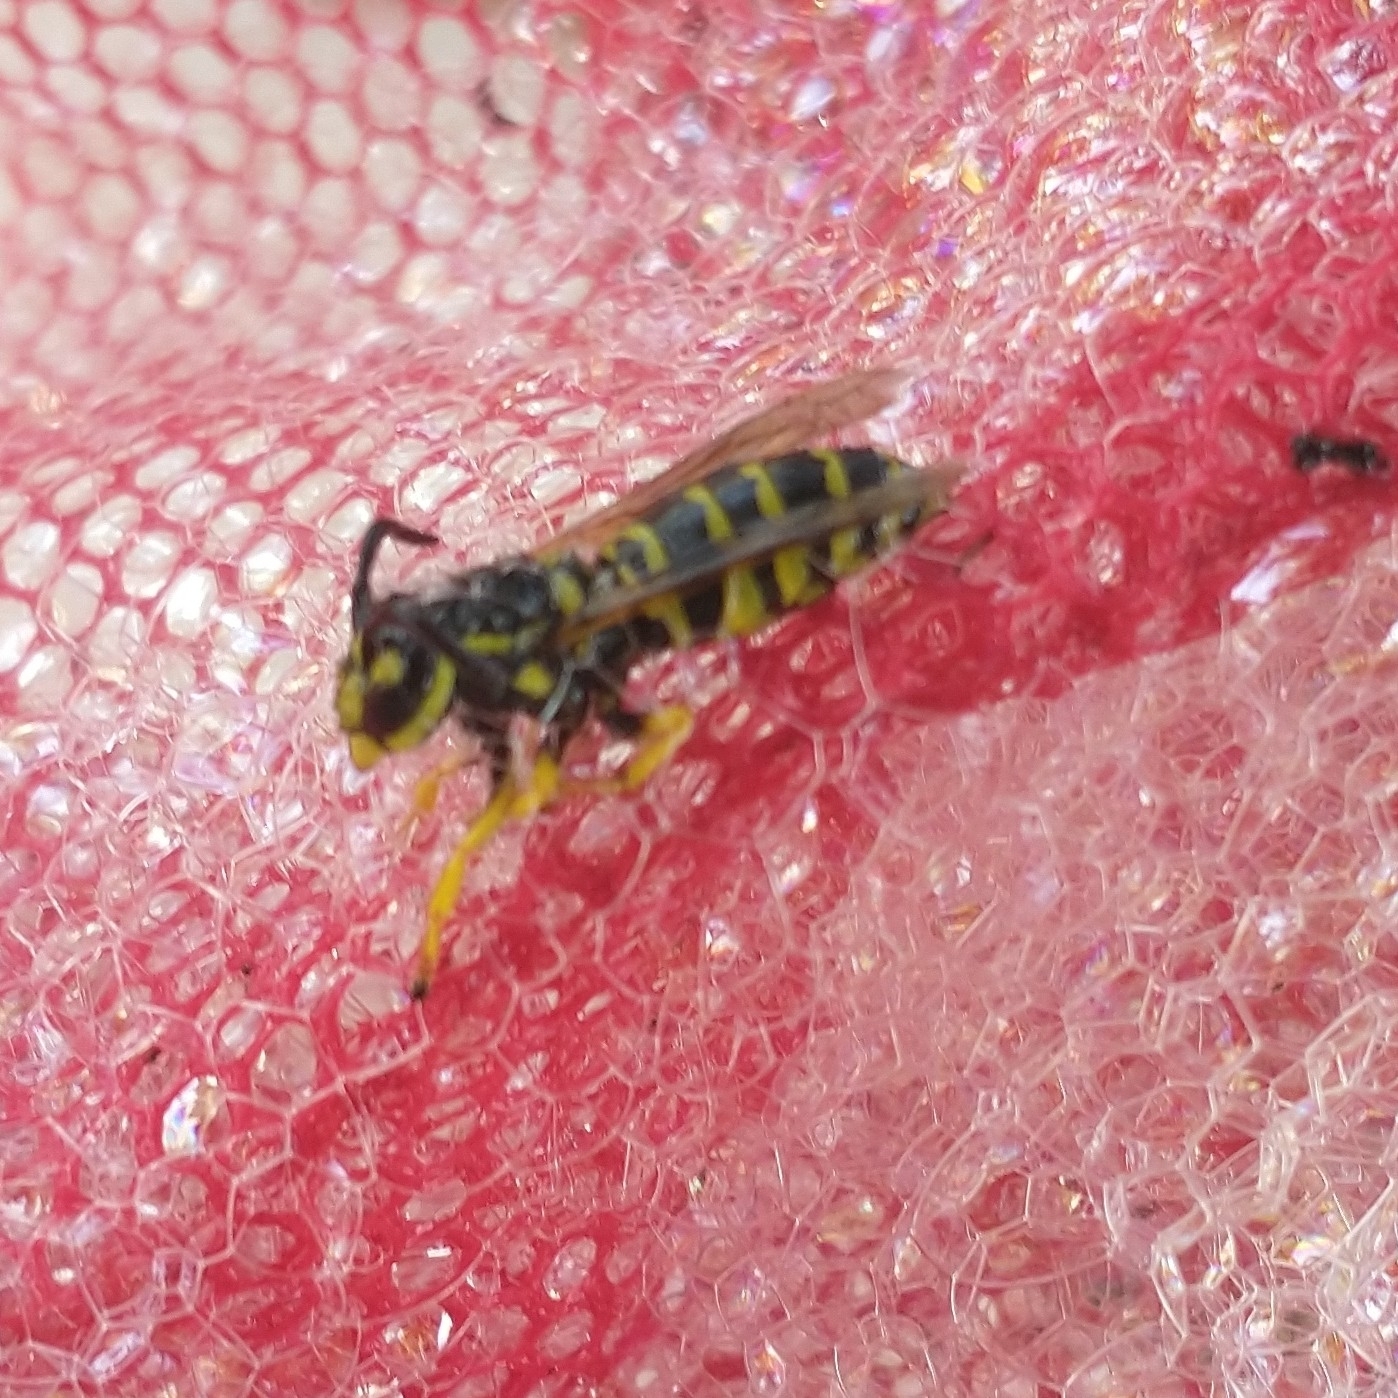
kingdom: Animalia
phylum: Arthropoda
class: Insecta
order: Hymenoptera
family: Vespidae
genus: Vespula
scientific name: Vespula maculifrons
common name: Eastern yellowjacket
